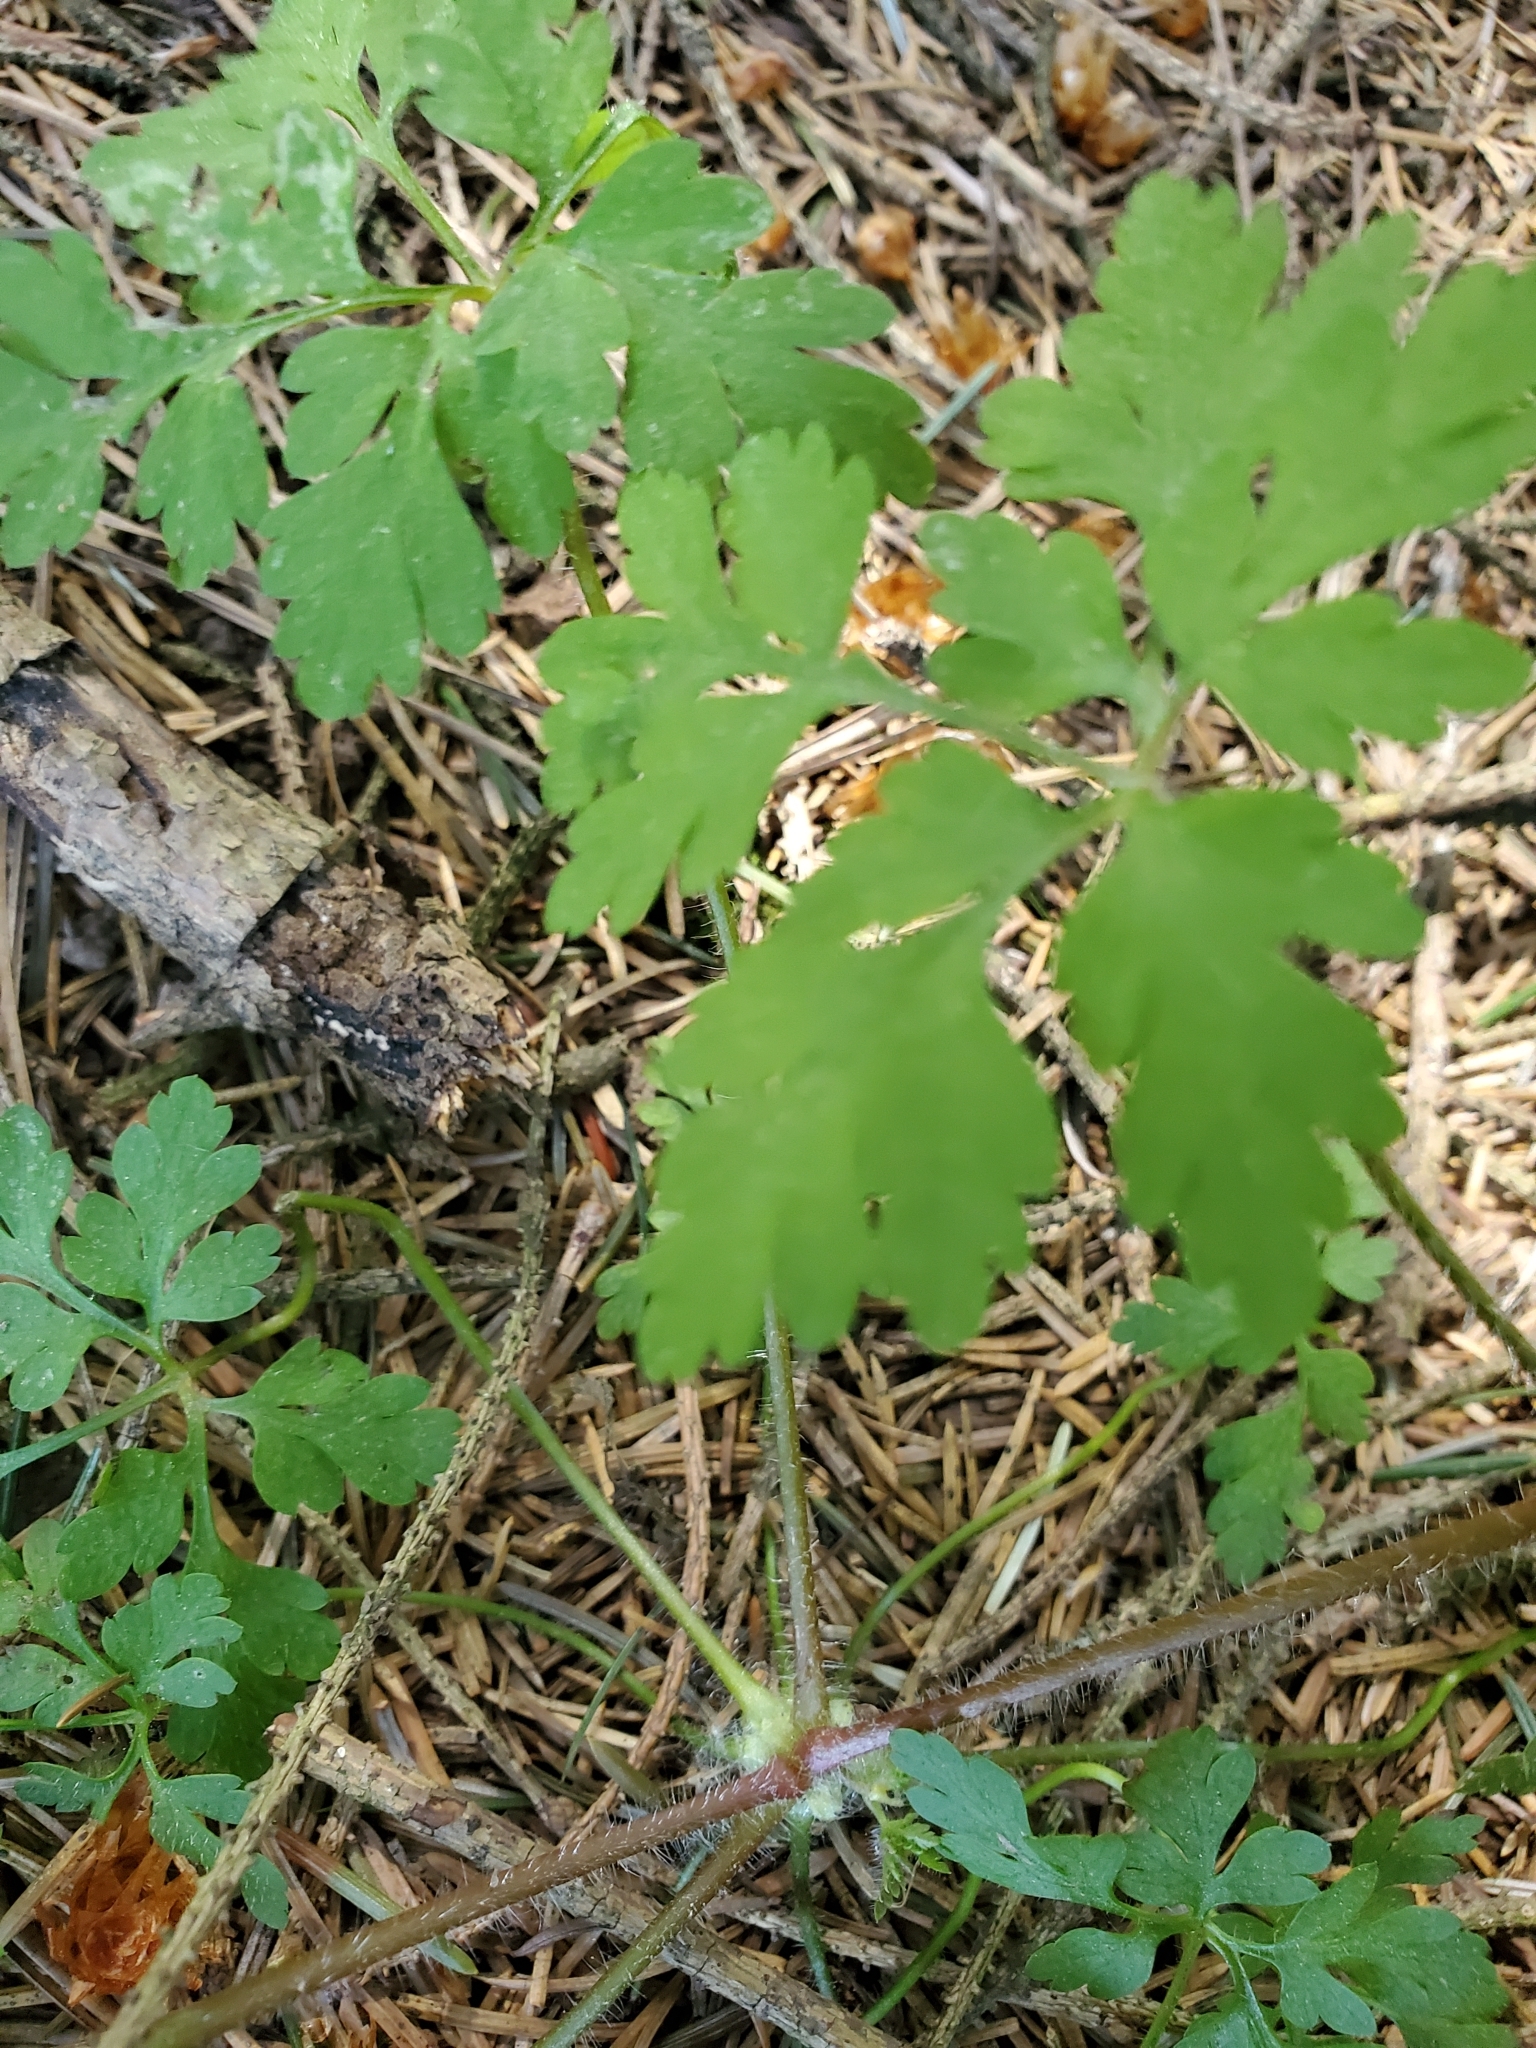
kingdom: Plantae
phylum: Tracheophyta
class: Magnoliopsida
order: Geraniales
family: Geraniaceae
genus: Geranium
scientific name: Geranium robertianum
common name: Herb-robert
